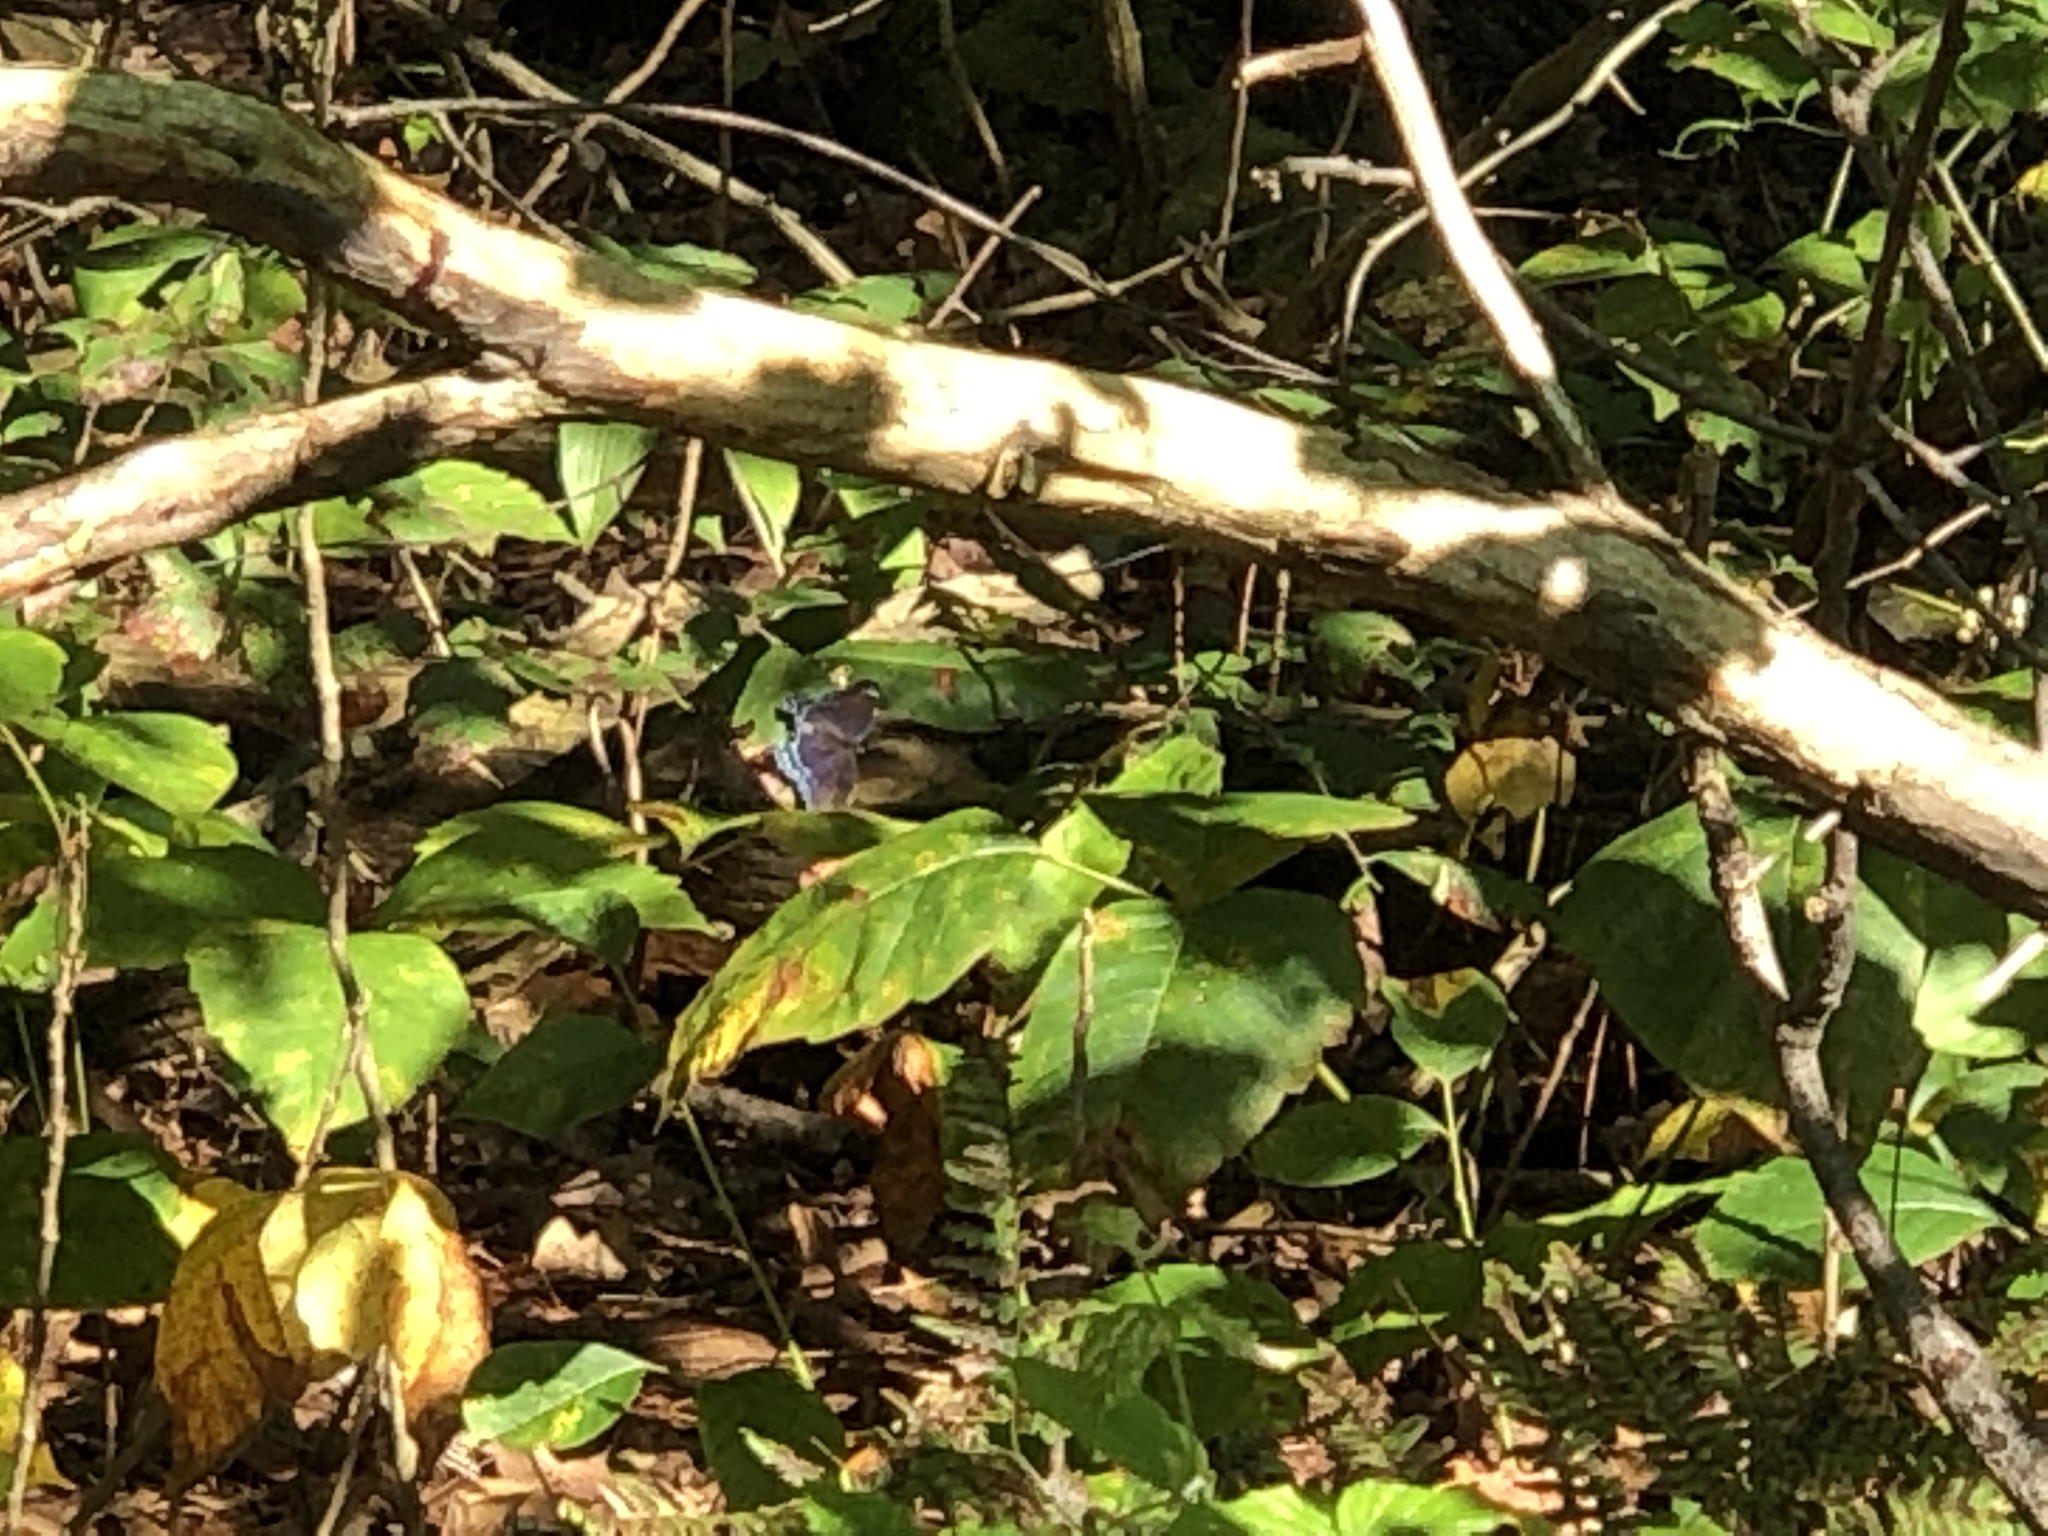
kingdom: Animalia
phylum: Arthropoda
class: Insecta
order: Lepidoptera
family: Nymphalidae
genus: Limenitis
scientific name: Limenitis astyanax
